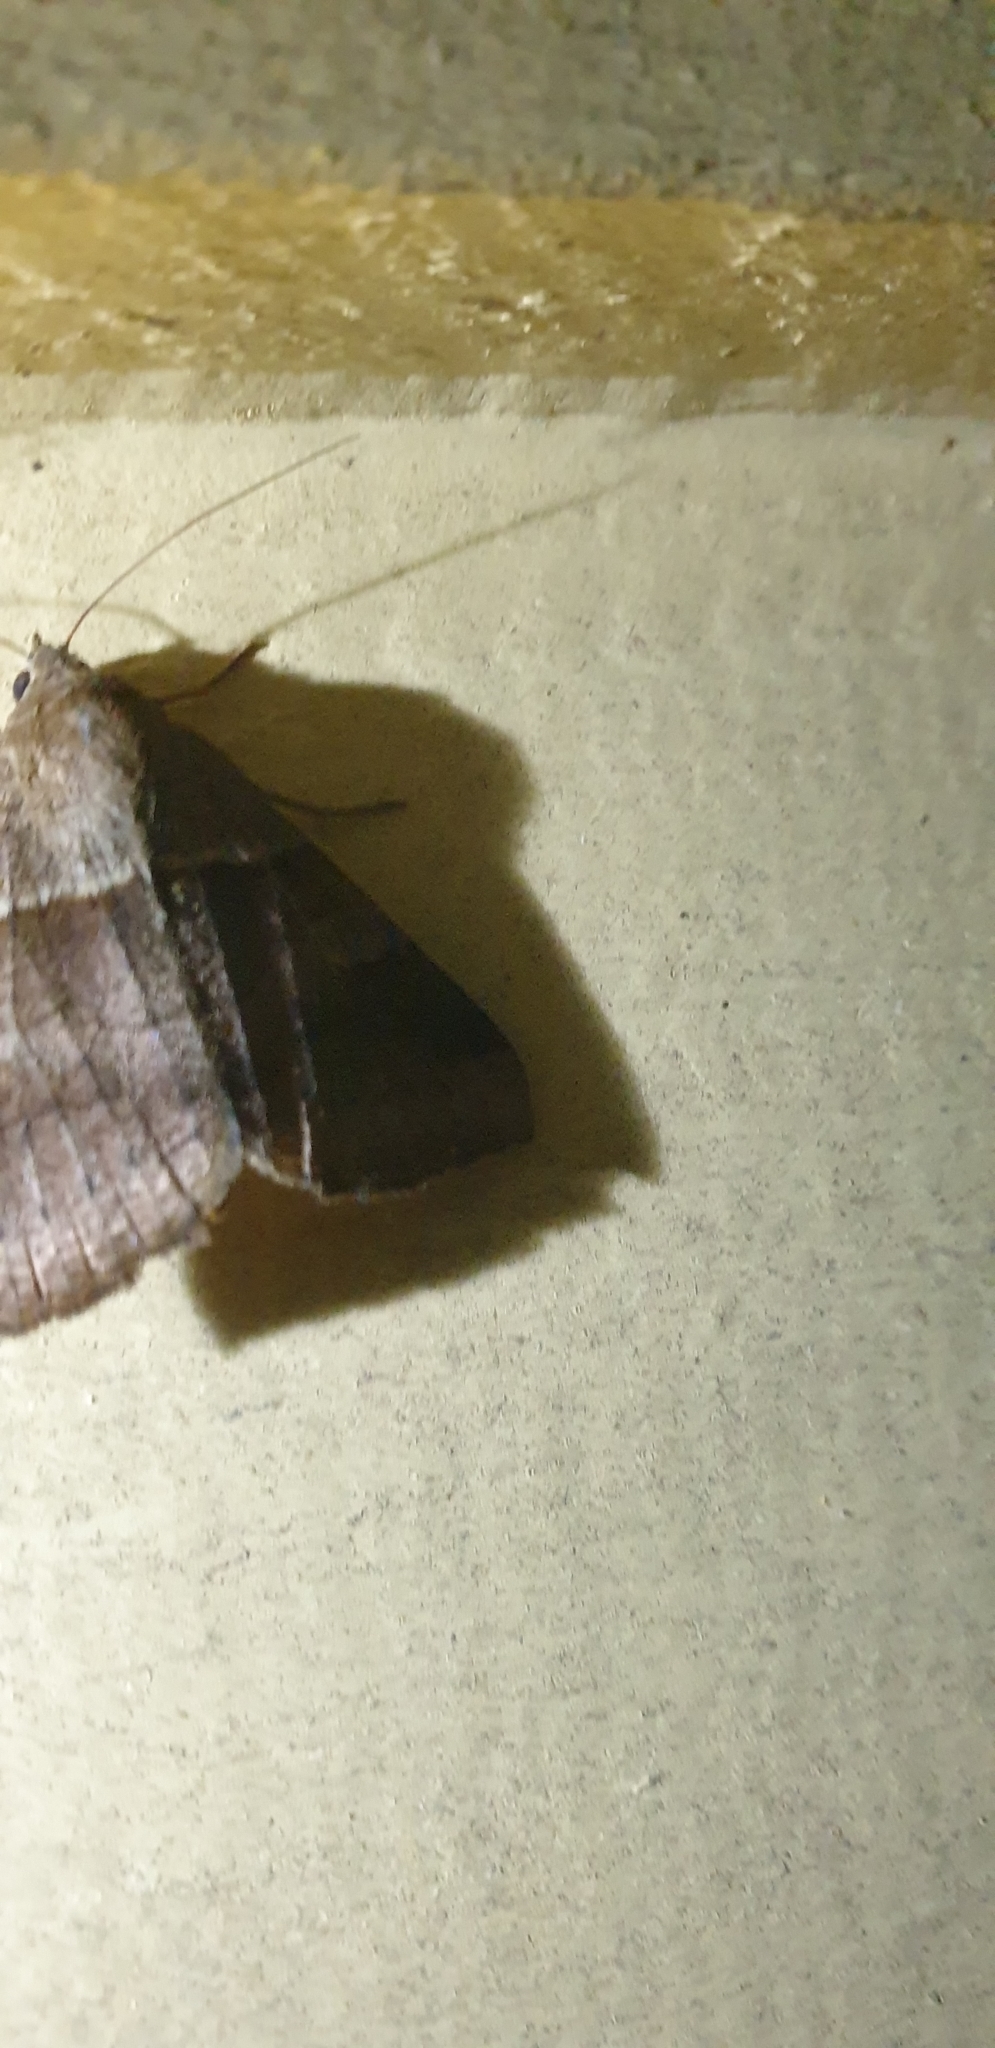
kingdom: Animalia
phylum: Arthropoda
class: Insecta
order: Lepidoptera
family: Erebidae
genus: Mocis
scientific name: Mocis trifasciata
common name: Triple-barred
